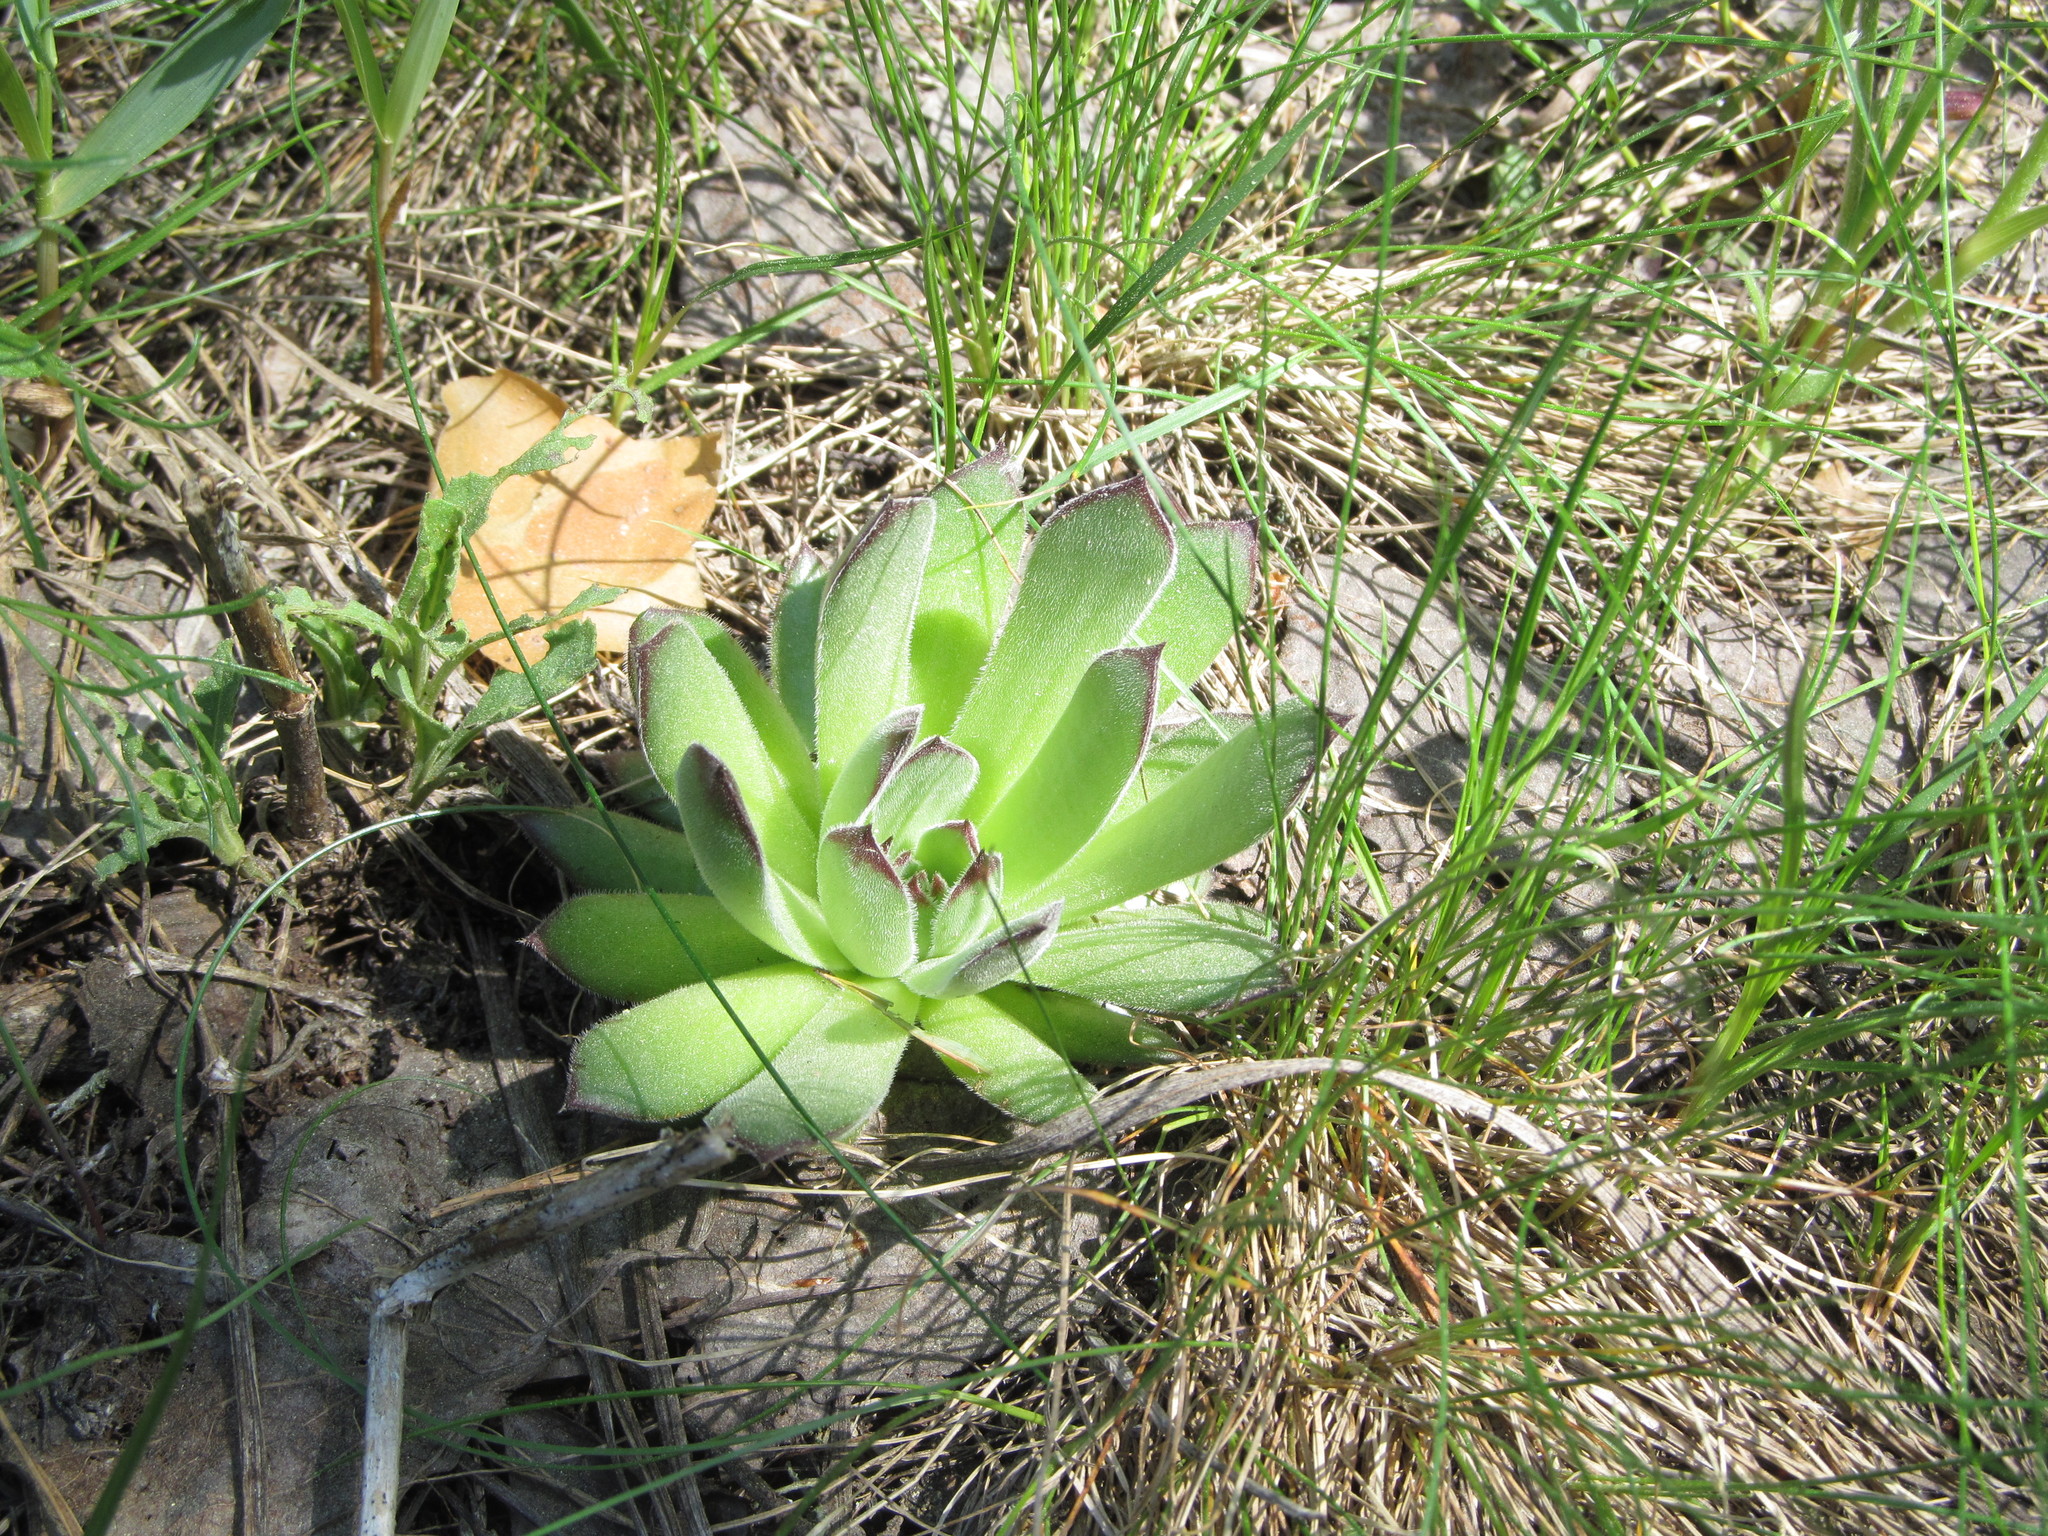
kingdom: Plantae
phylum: Tracheophyta
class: Magnoliopsida
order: Saxifragales
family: Crassulaceae
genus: Sempervivum
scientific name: Sempervivum ruthenicum
